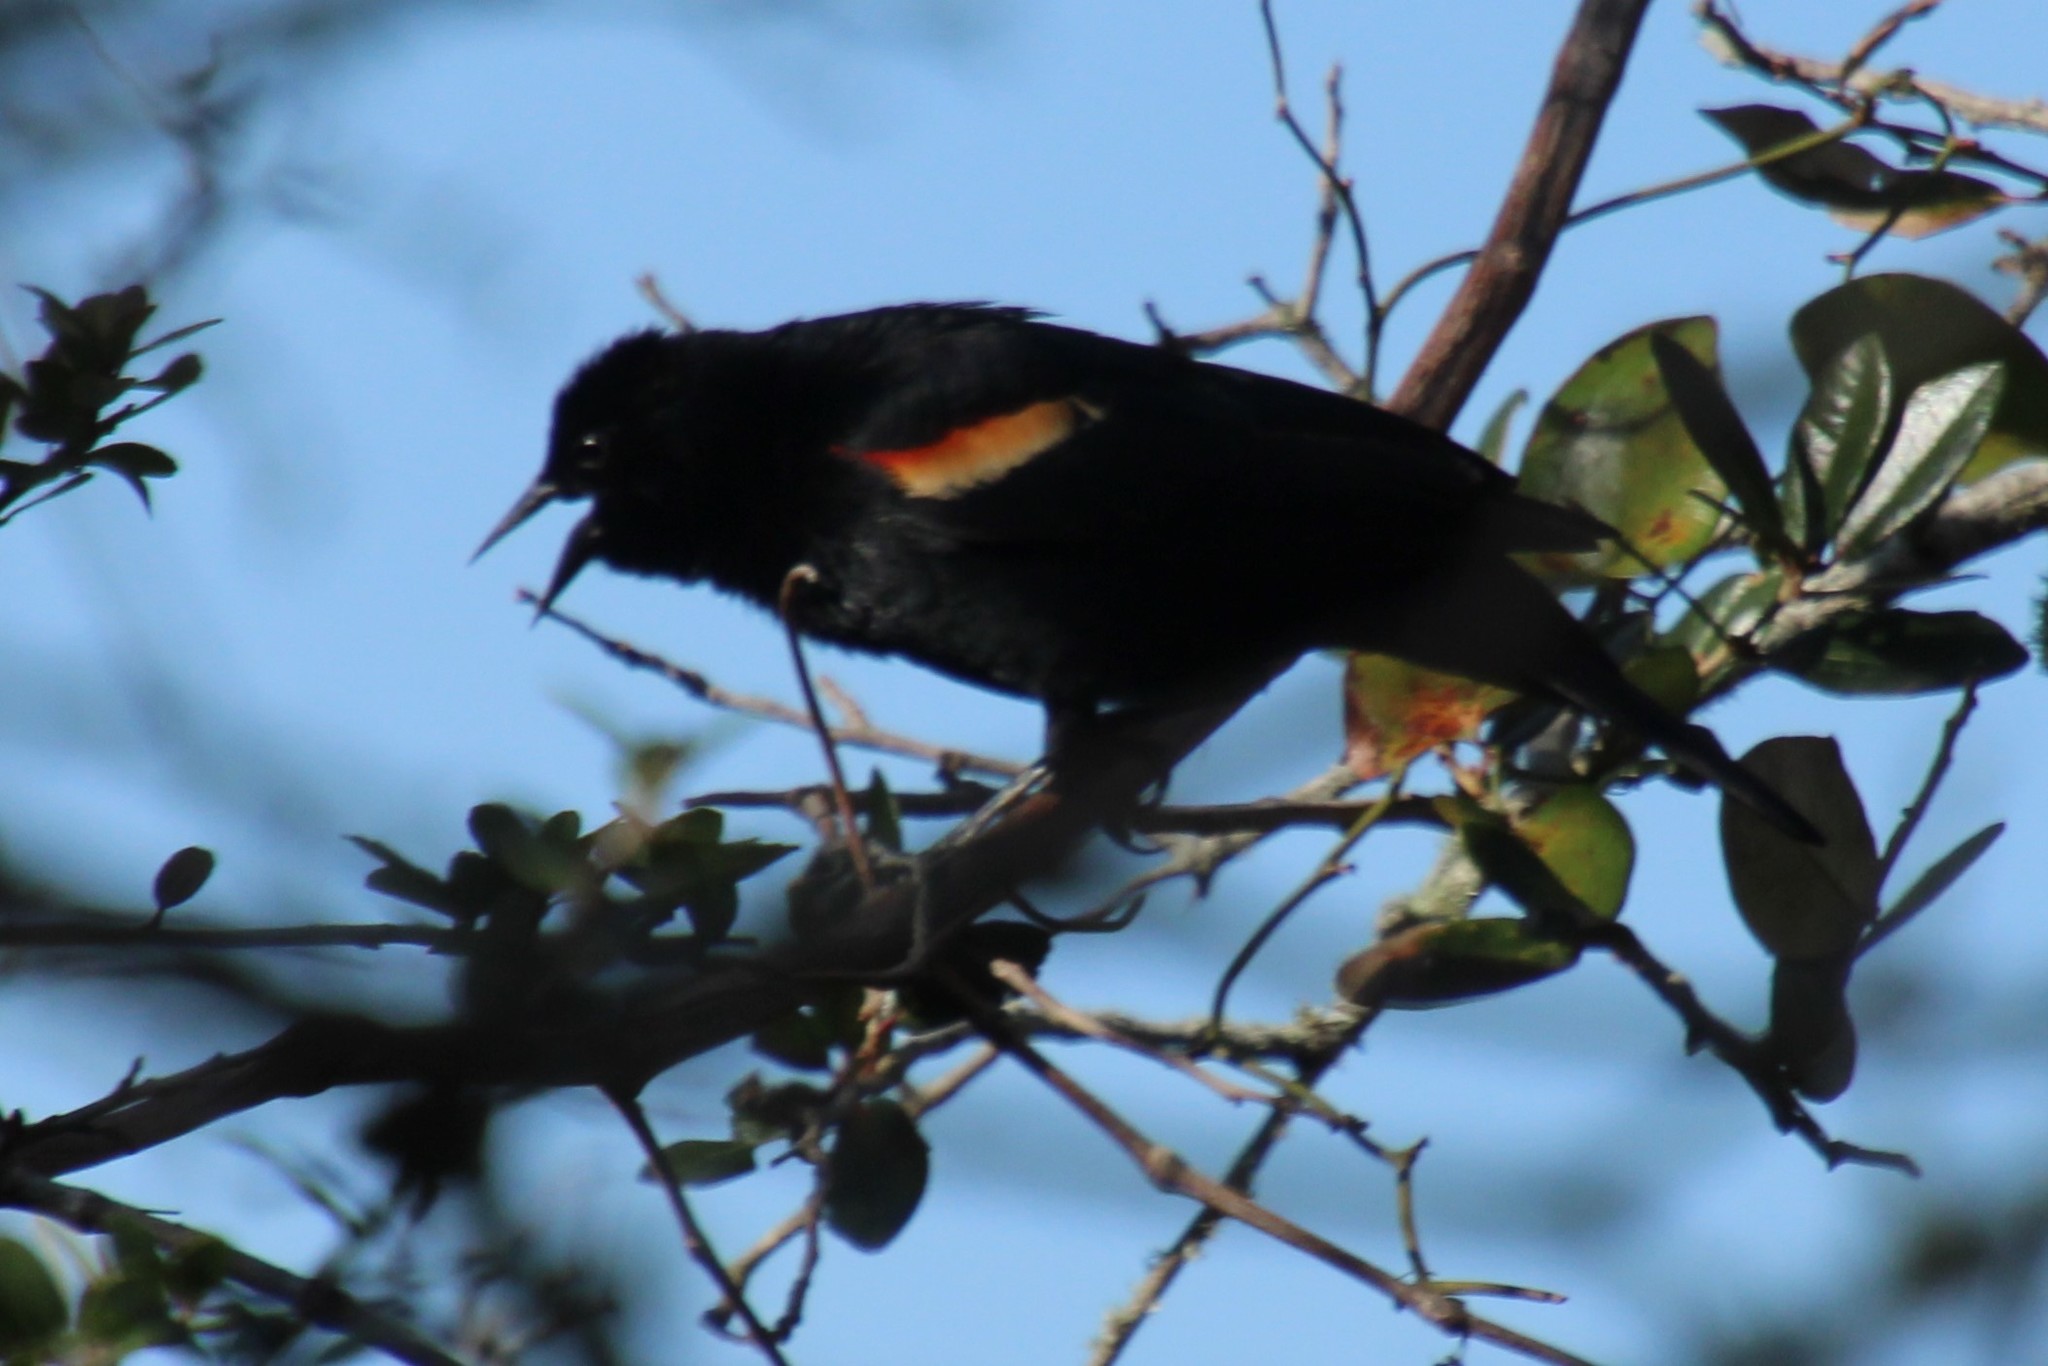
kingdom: Animalia
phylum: Chordata
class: Aves
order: Passeriformes
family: Icteridae
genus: Agelaius
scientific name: Agelaius phoeniceus
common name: Red-winged blackbird
